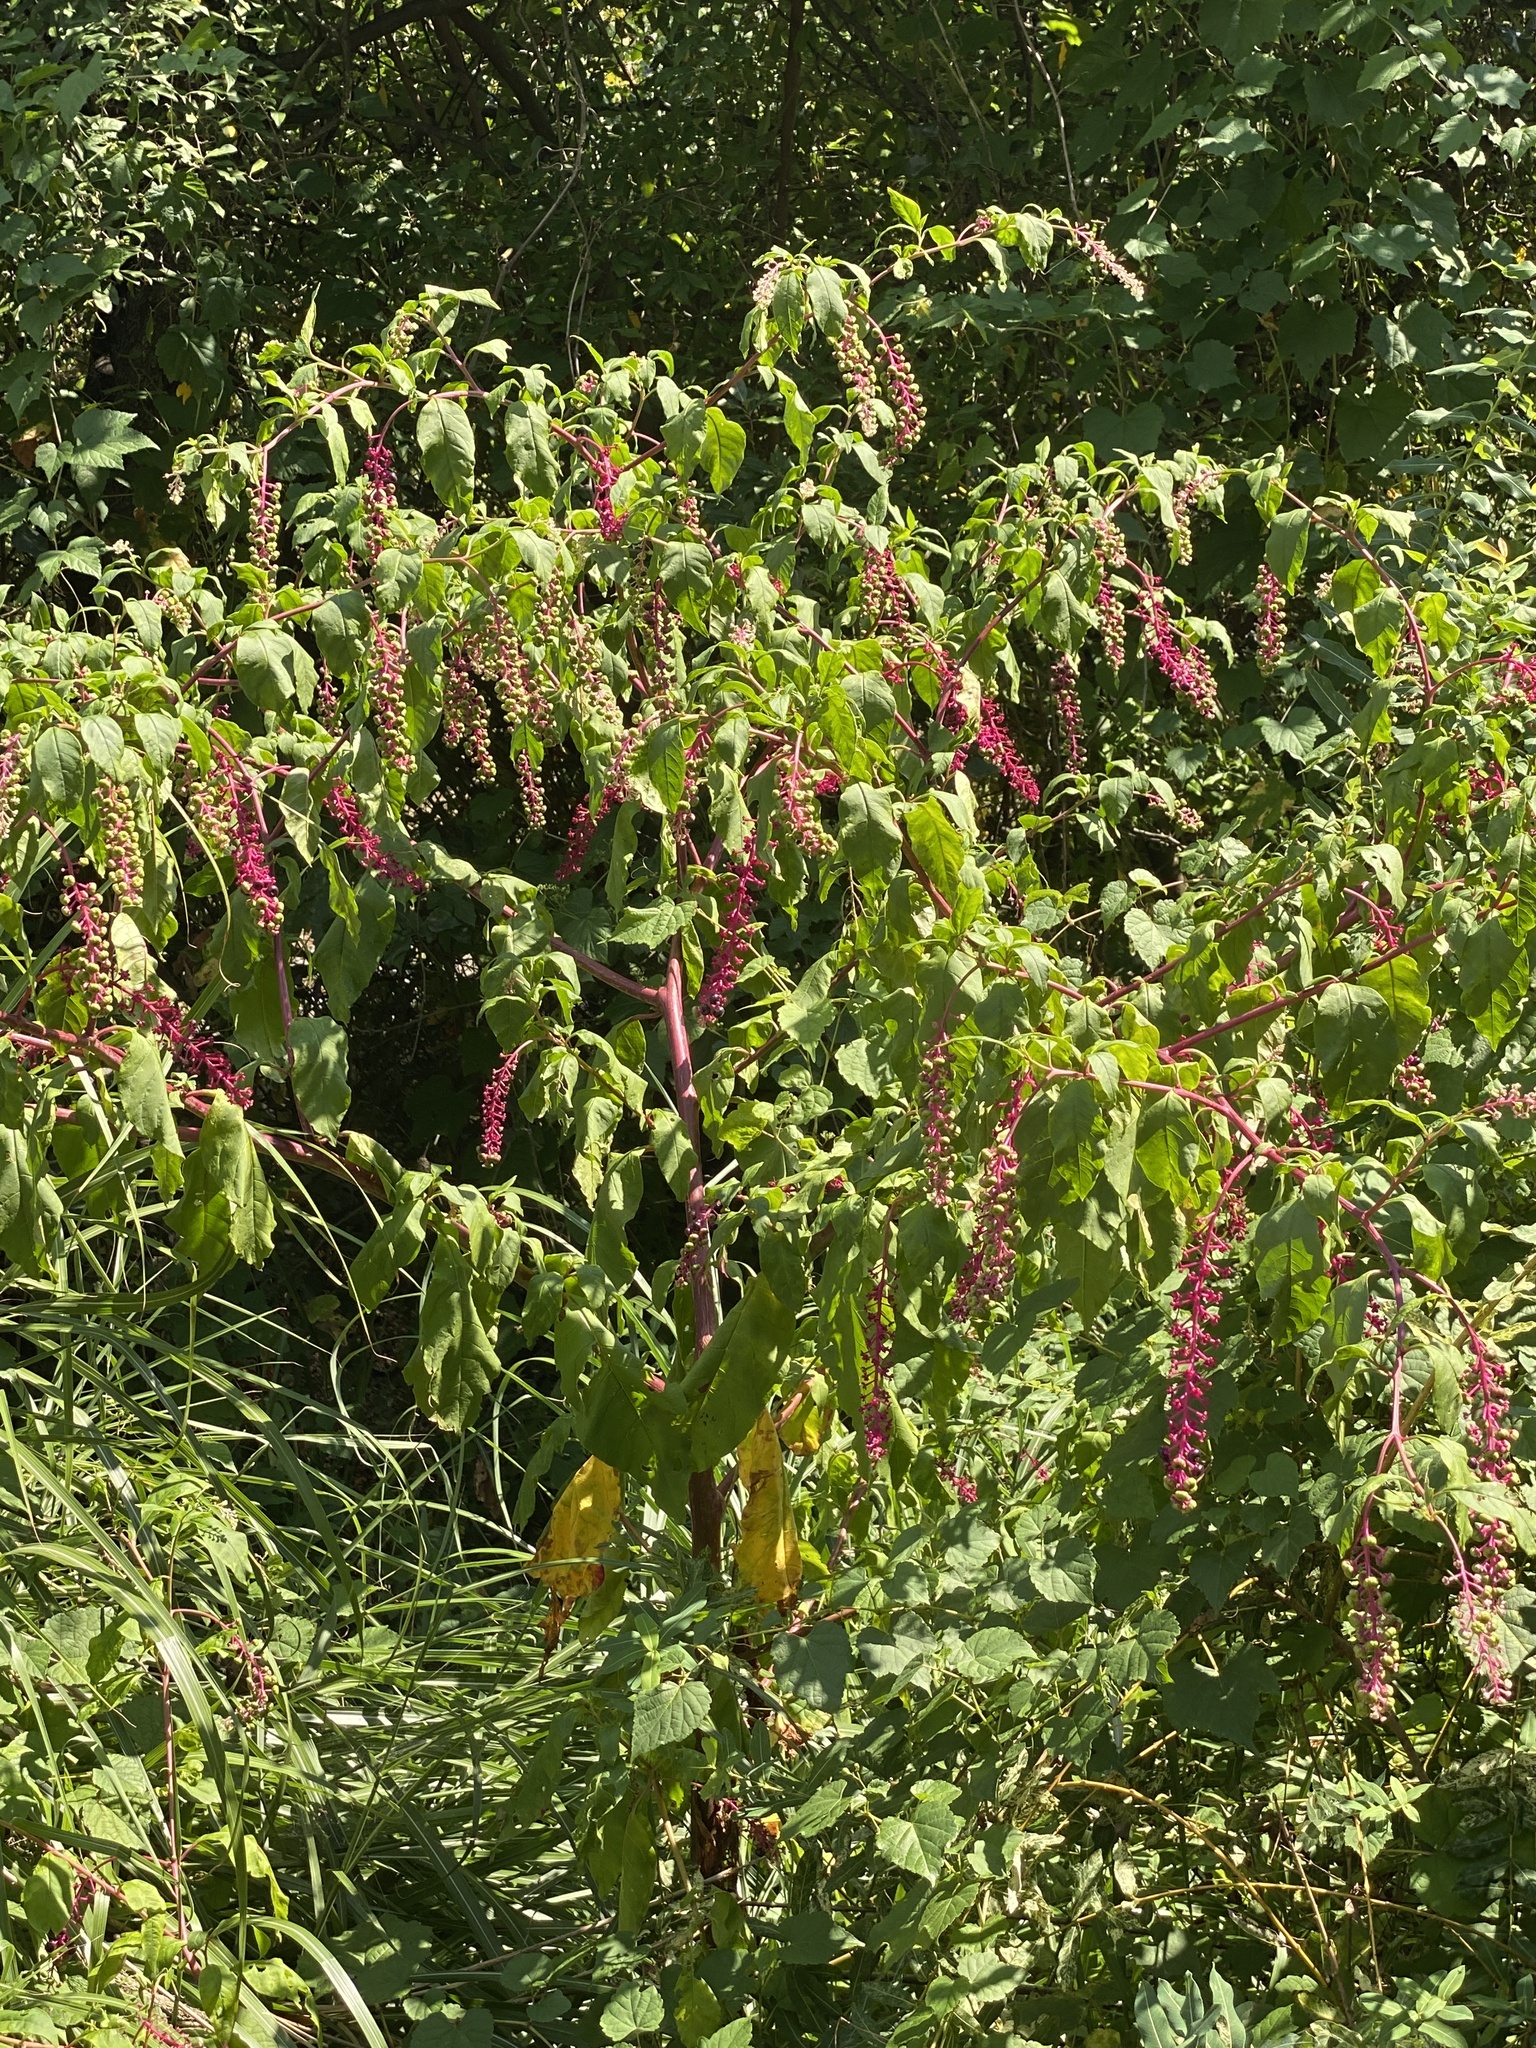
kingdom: Plantae
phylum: Tracheophyta
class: Magnoliopsida
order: Caryophyllales
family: Phytolaccaceae
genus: Phytolacca
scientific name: Phytolacca americana
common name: American pokeweed
